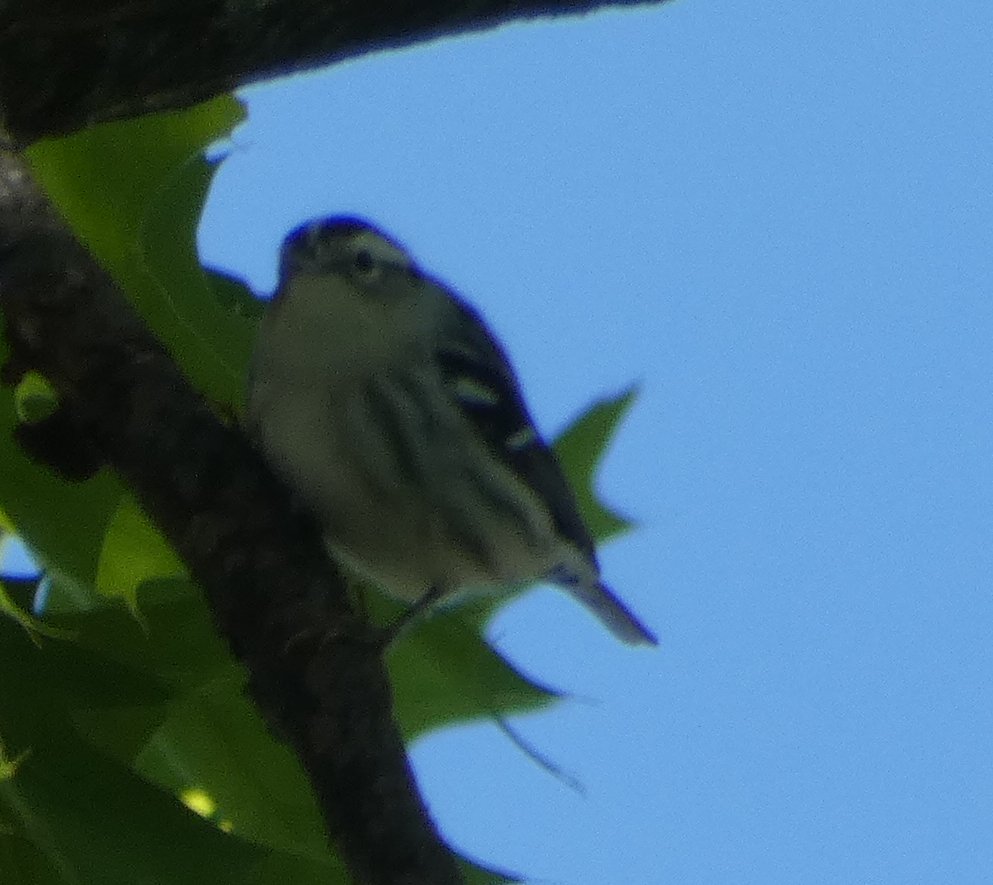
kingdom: Animalia
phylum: Chordata
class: Aves
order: Passeriformes
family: Parulidae
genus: Mniotilta
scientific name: Mniotilta varia
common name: Black-and-white warbler
